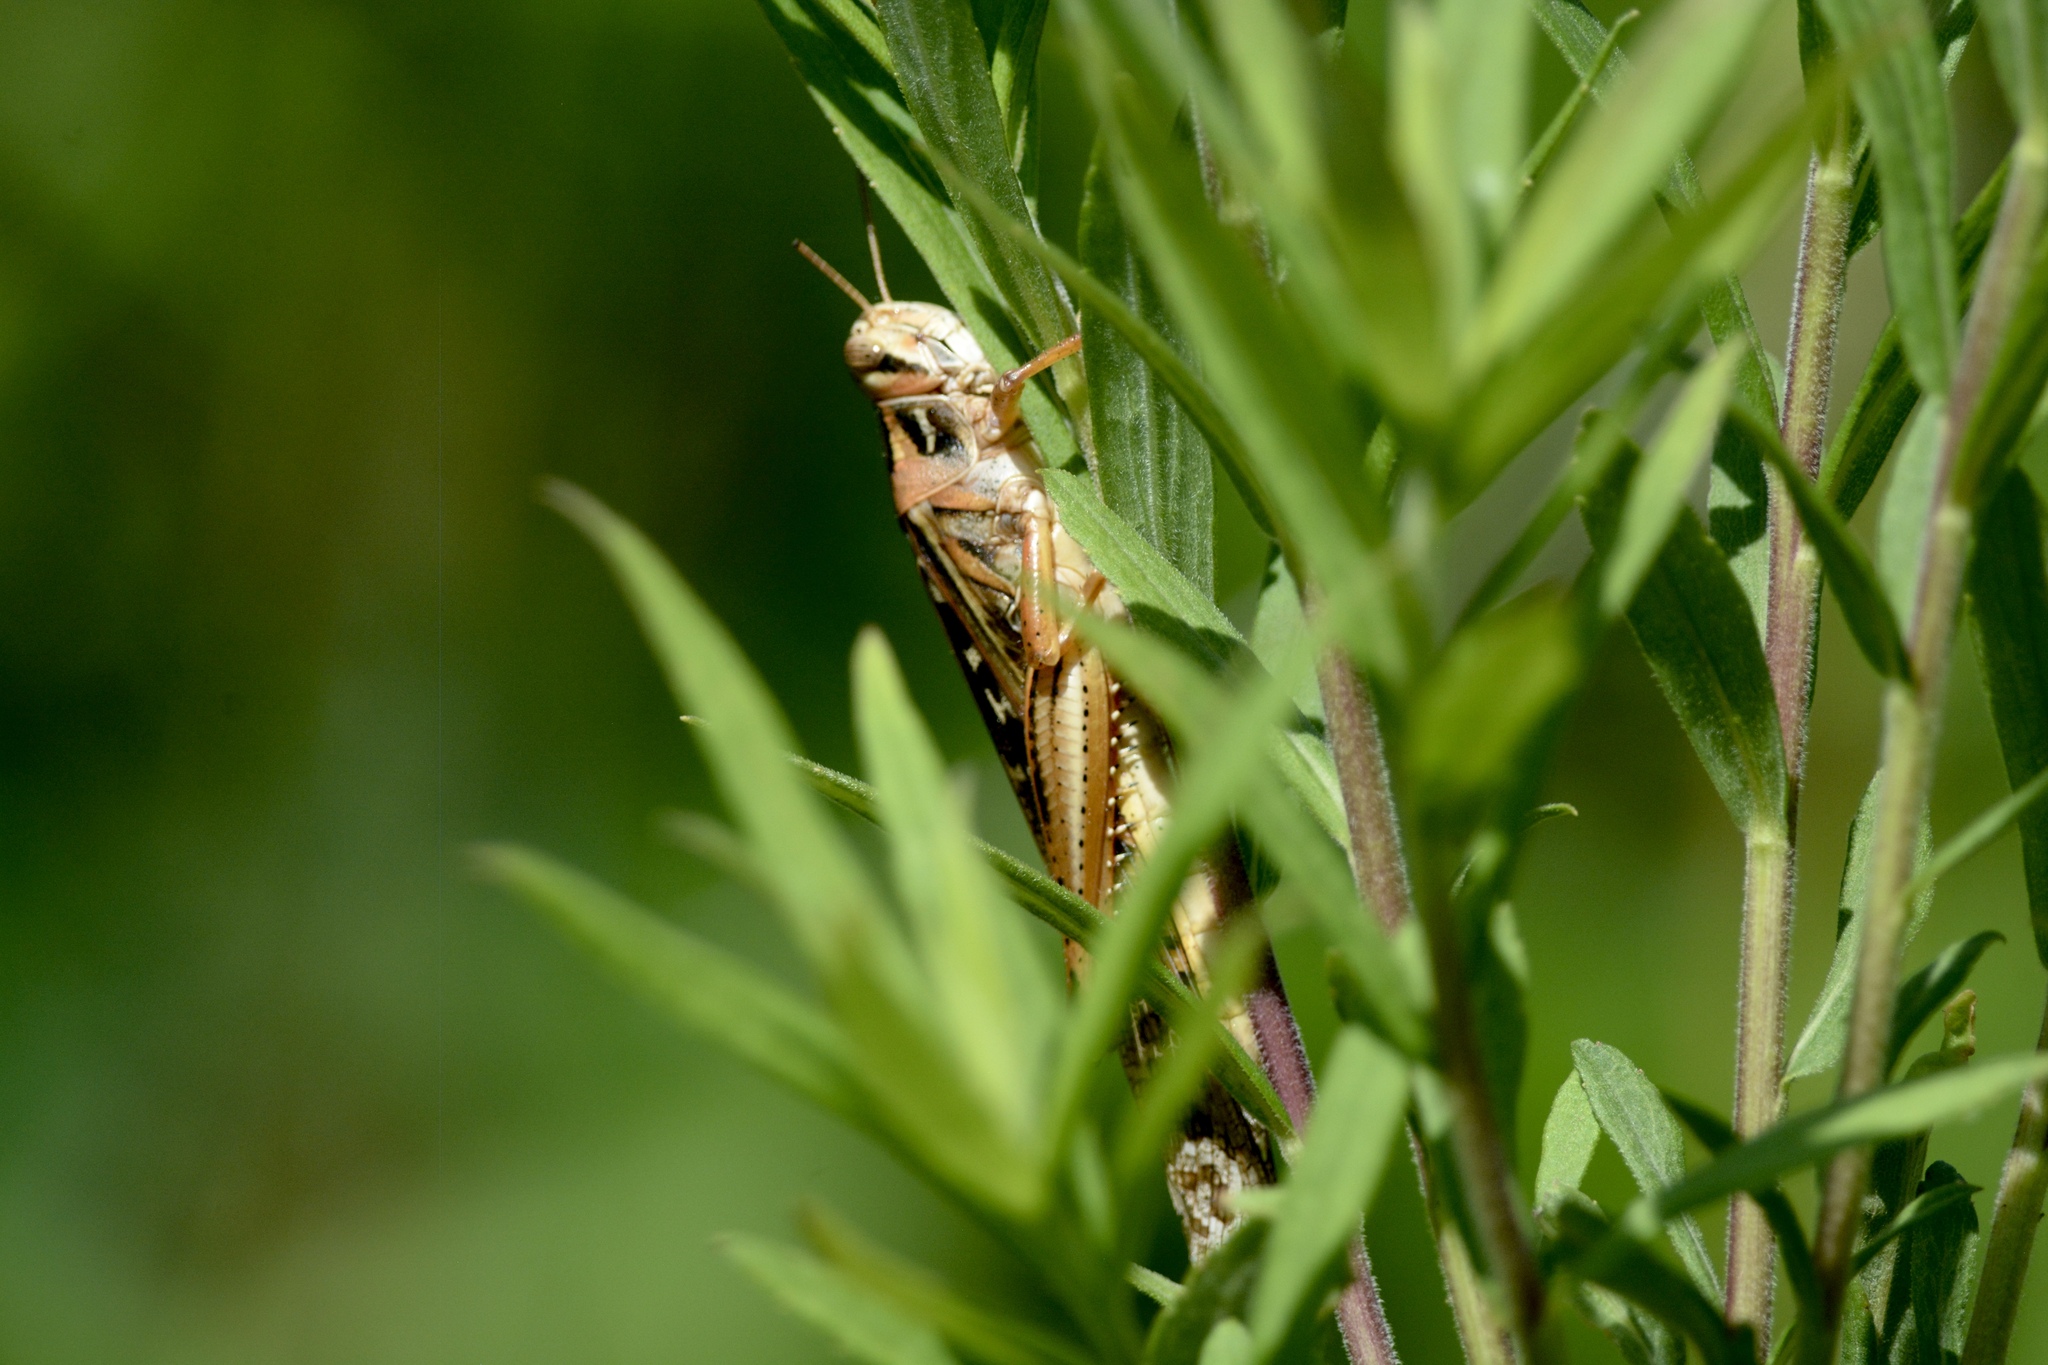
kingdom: Animalia
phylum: Arthropoda
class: Insecta
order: Orthoptera
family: Acrididae
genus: Schistocerca
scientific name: Schistocerca americana
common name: American bird locust
